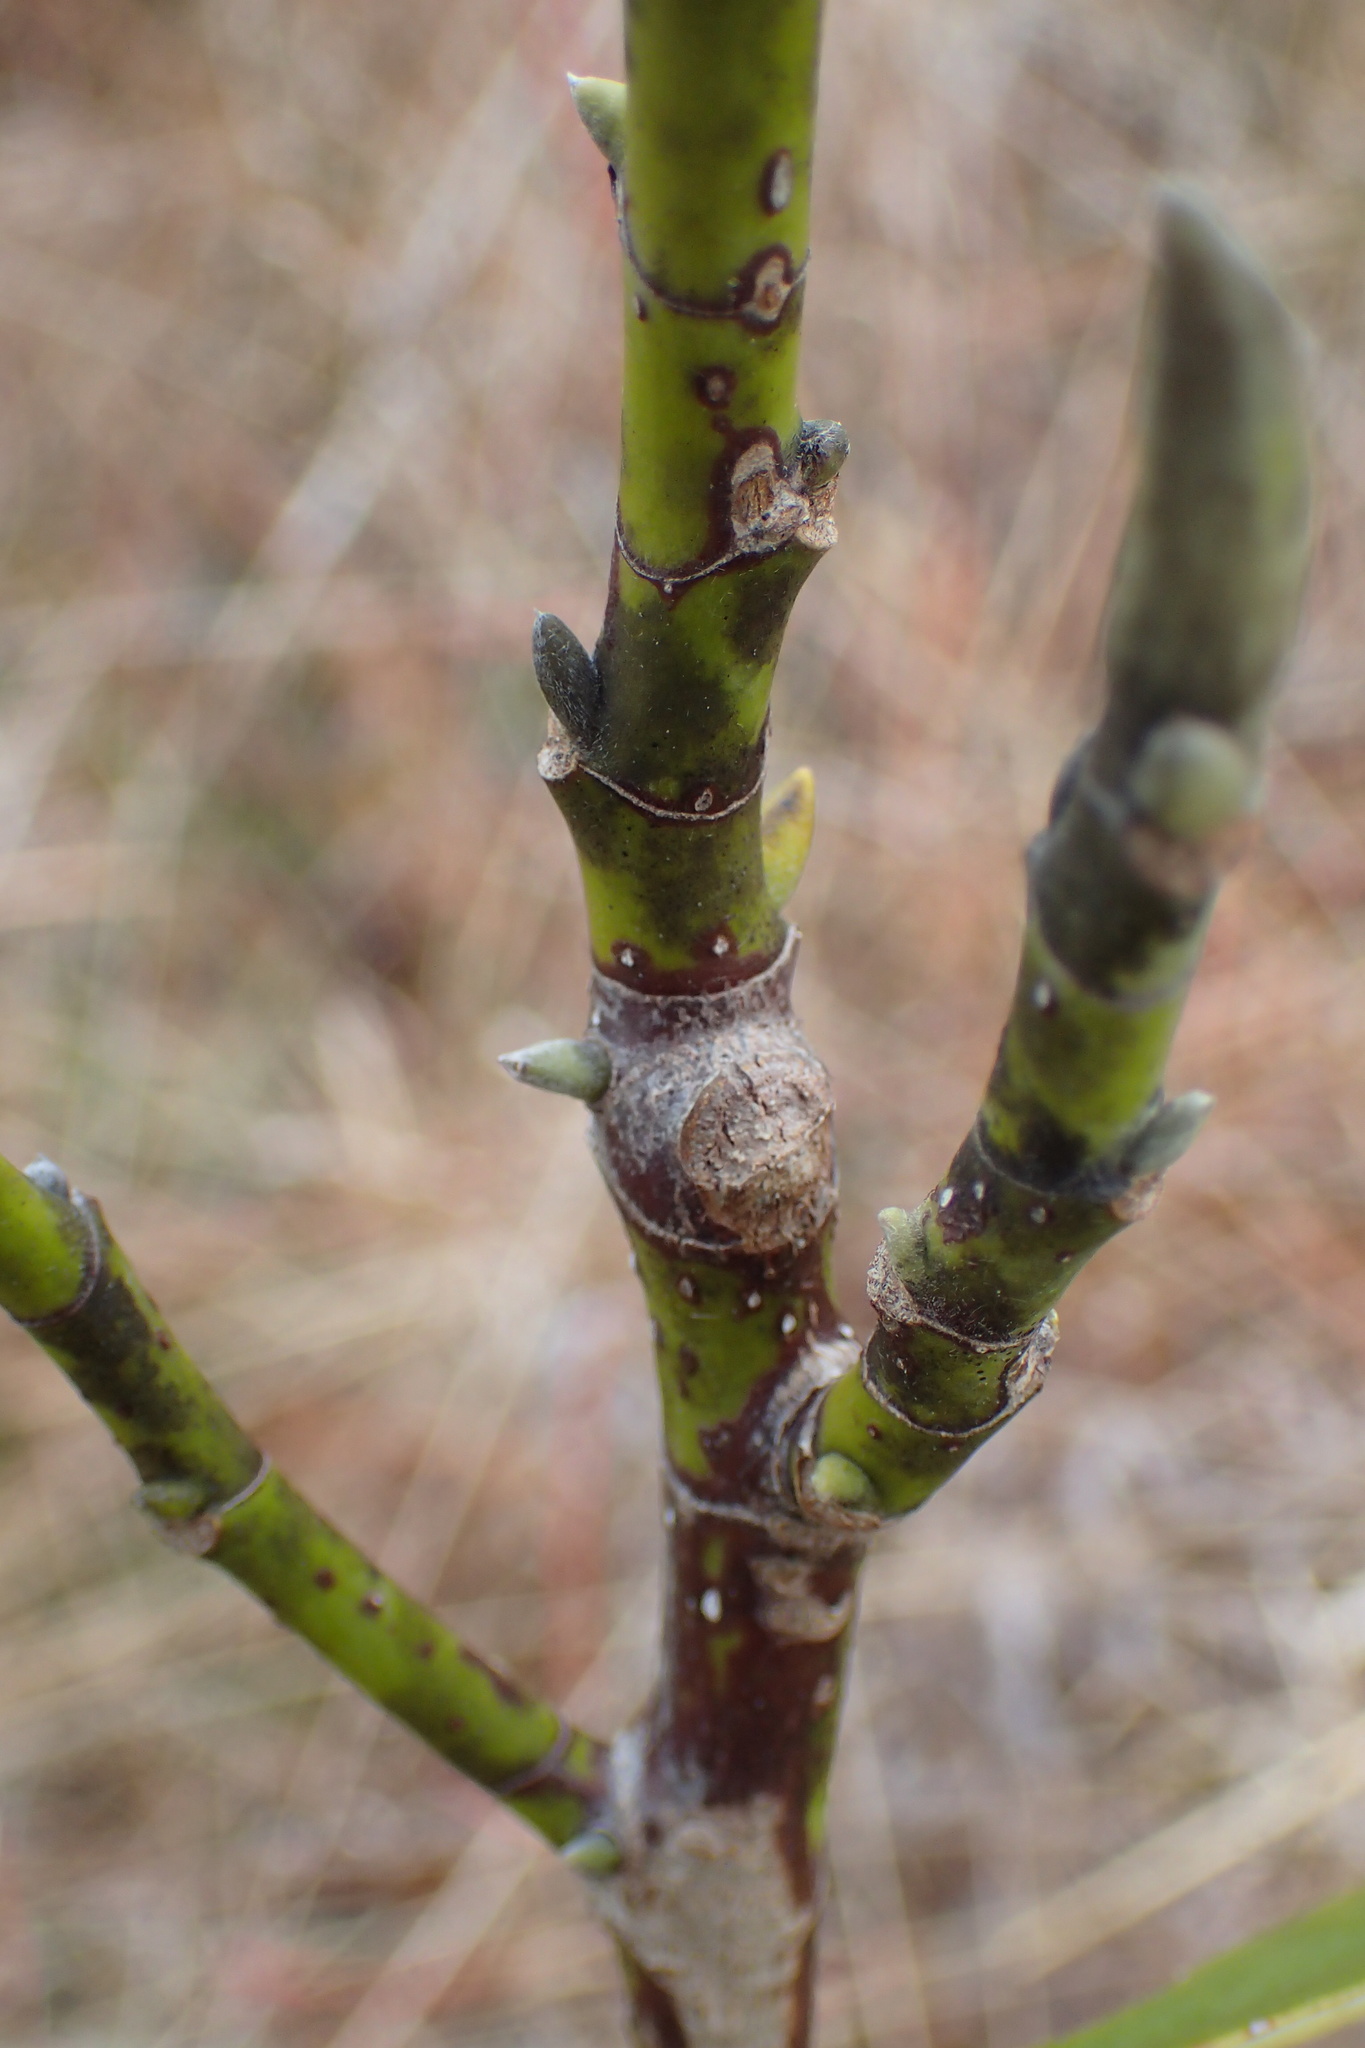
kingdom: Plantae
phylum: Tracheophyta
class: Magnoliopsida
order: Magnoliales
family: Magnoliaceae
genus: Magnolia
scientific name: Magnolia virginiana
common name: Swamp bay
